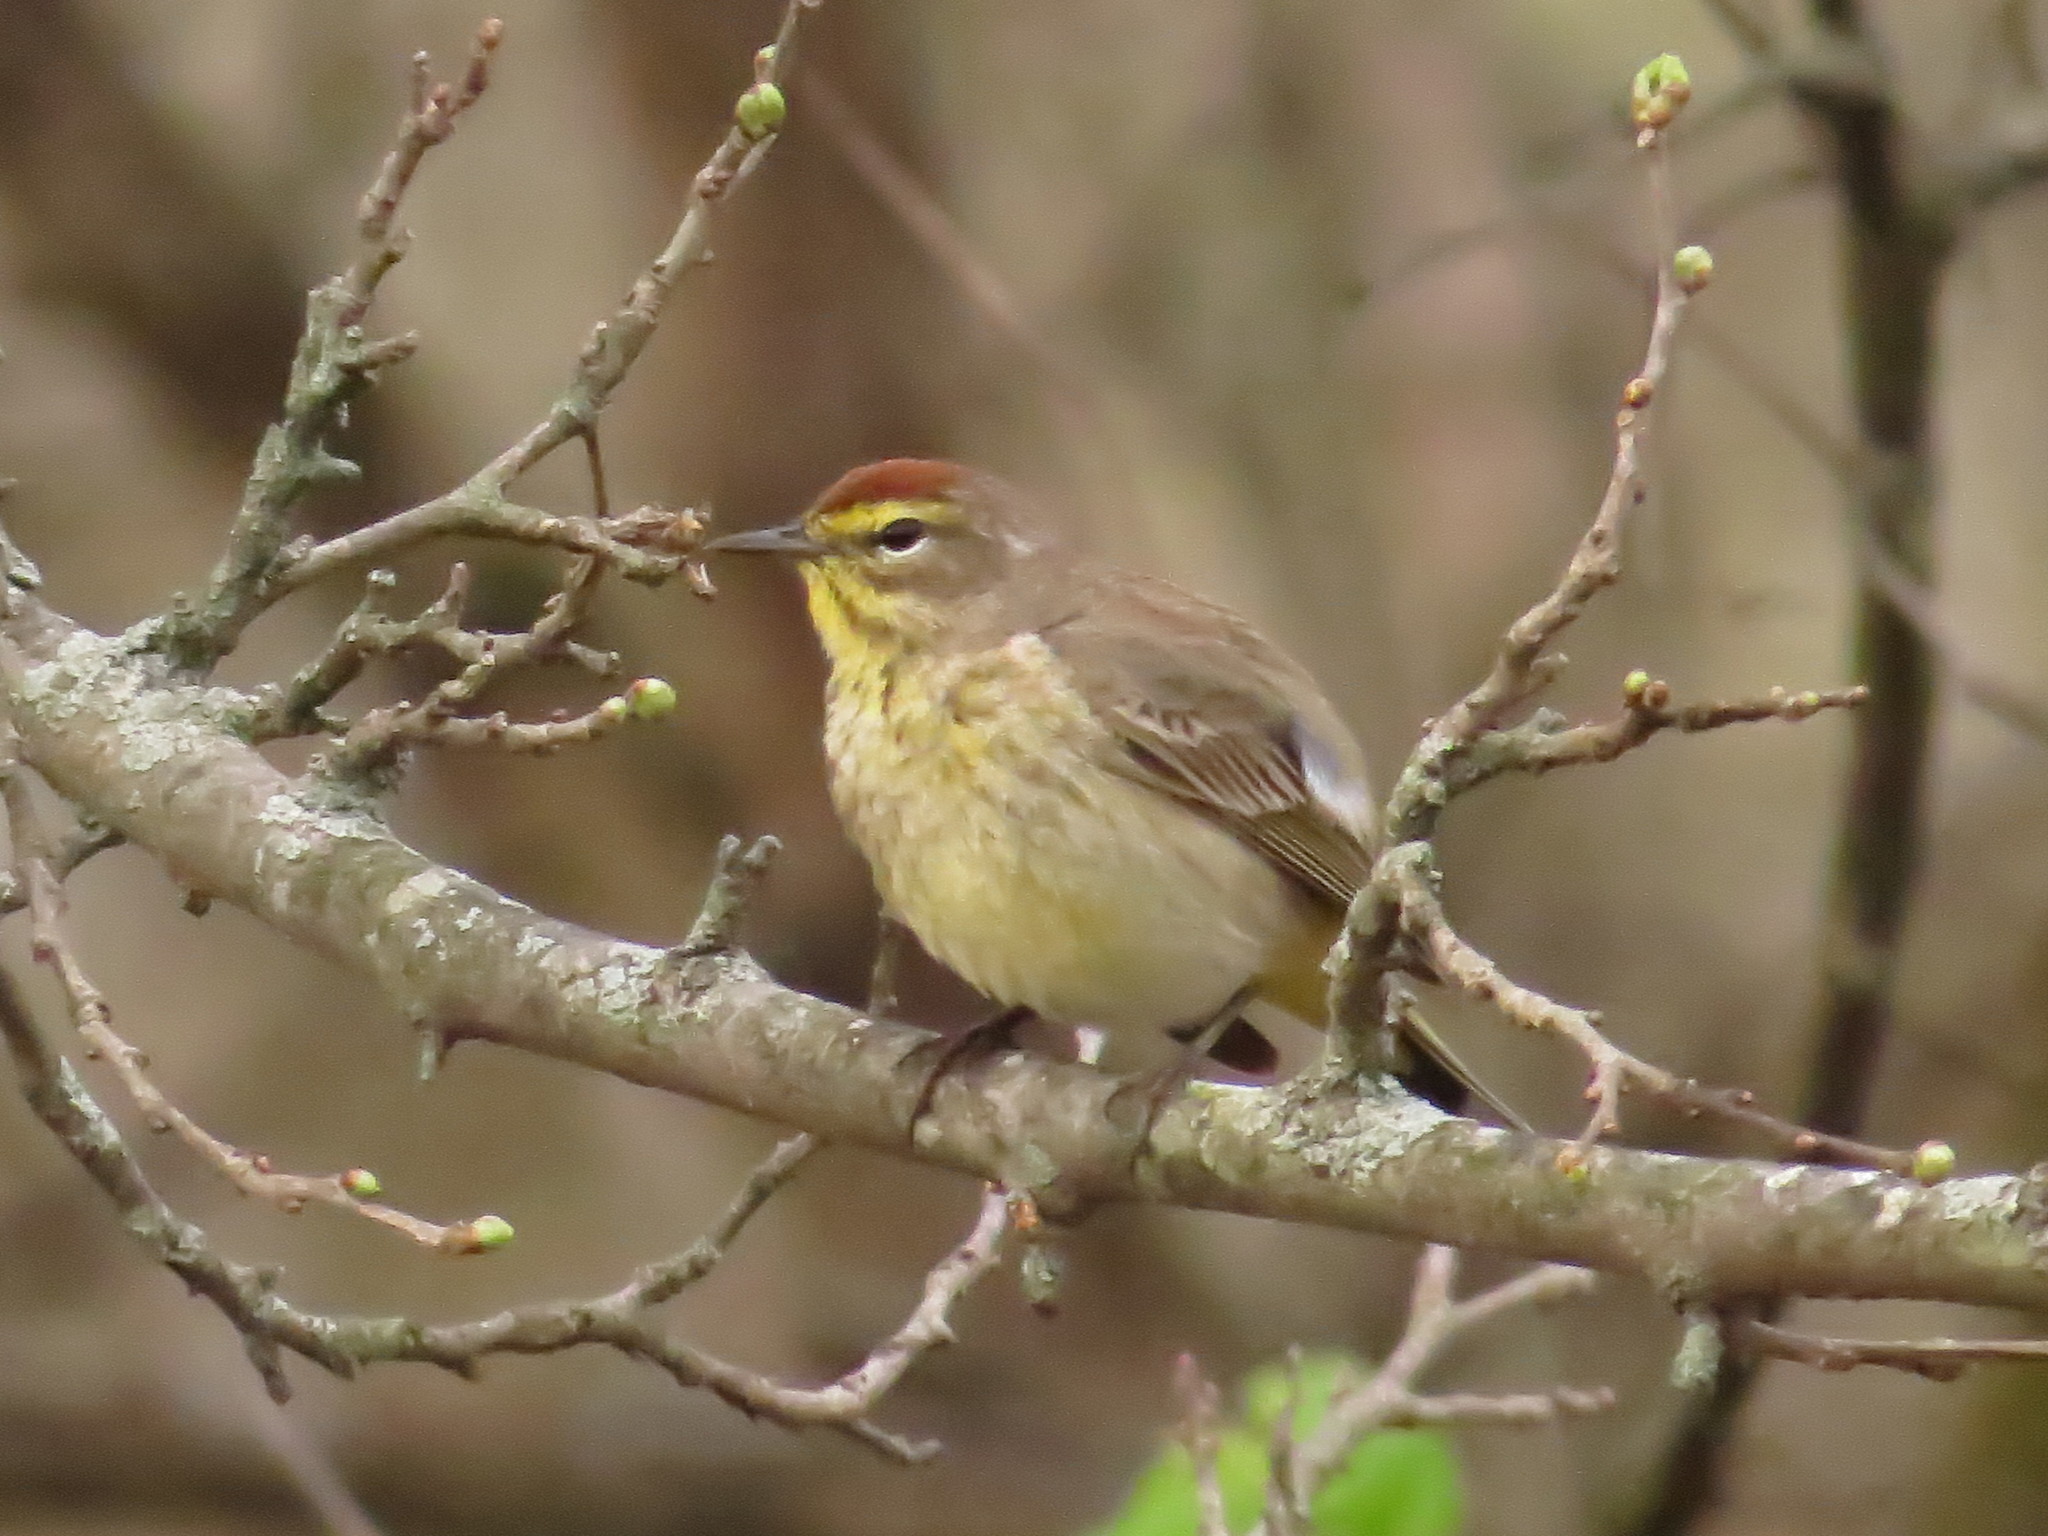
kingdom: Animalia
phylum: Chordata
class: Aves
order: Passeriformes
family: Parulidae
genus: Setophaga
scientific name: Setophaga palmarum
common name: Palm warbler
